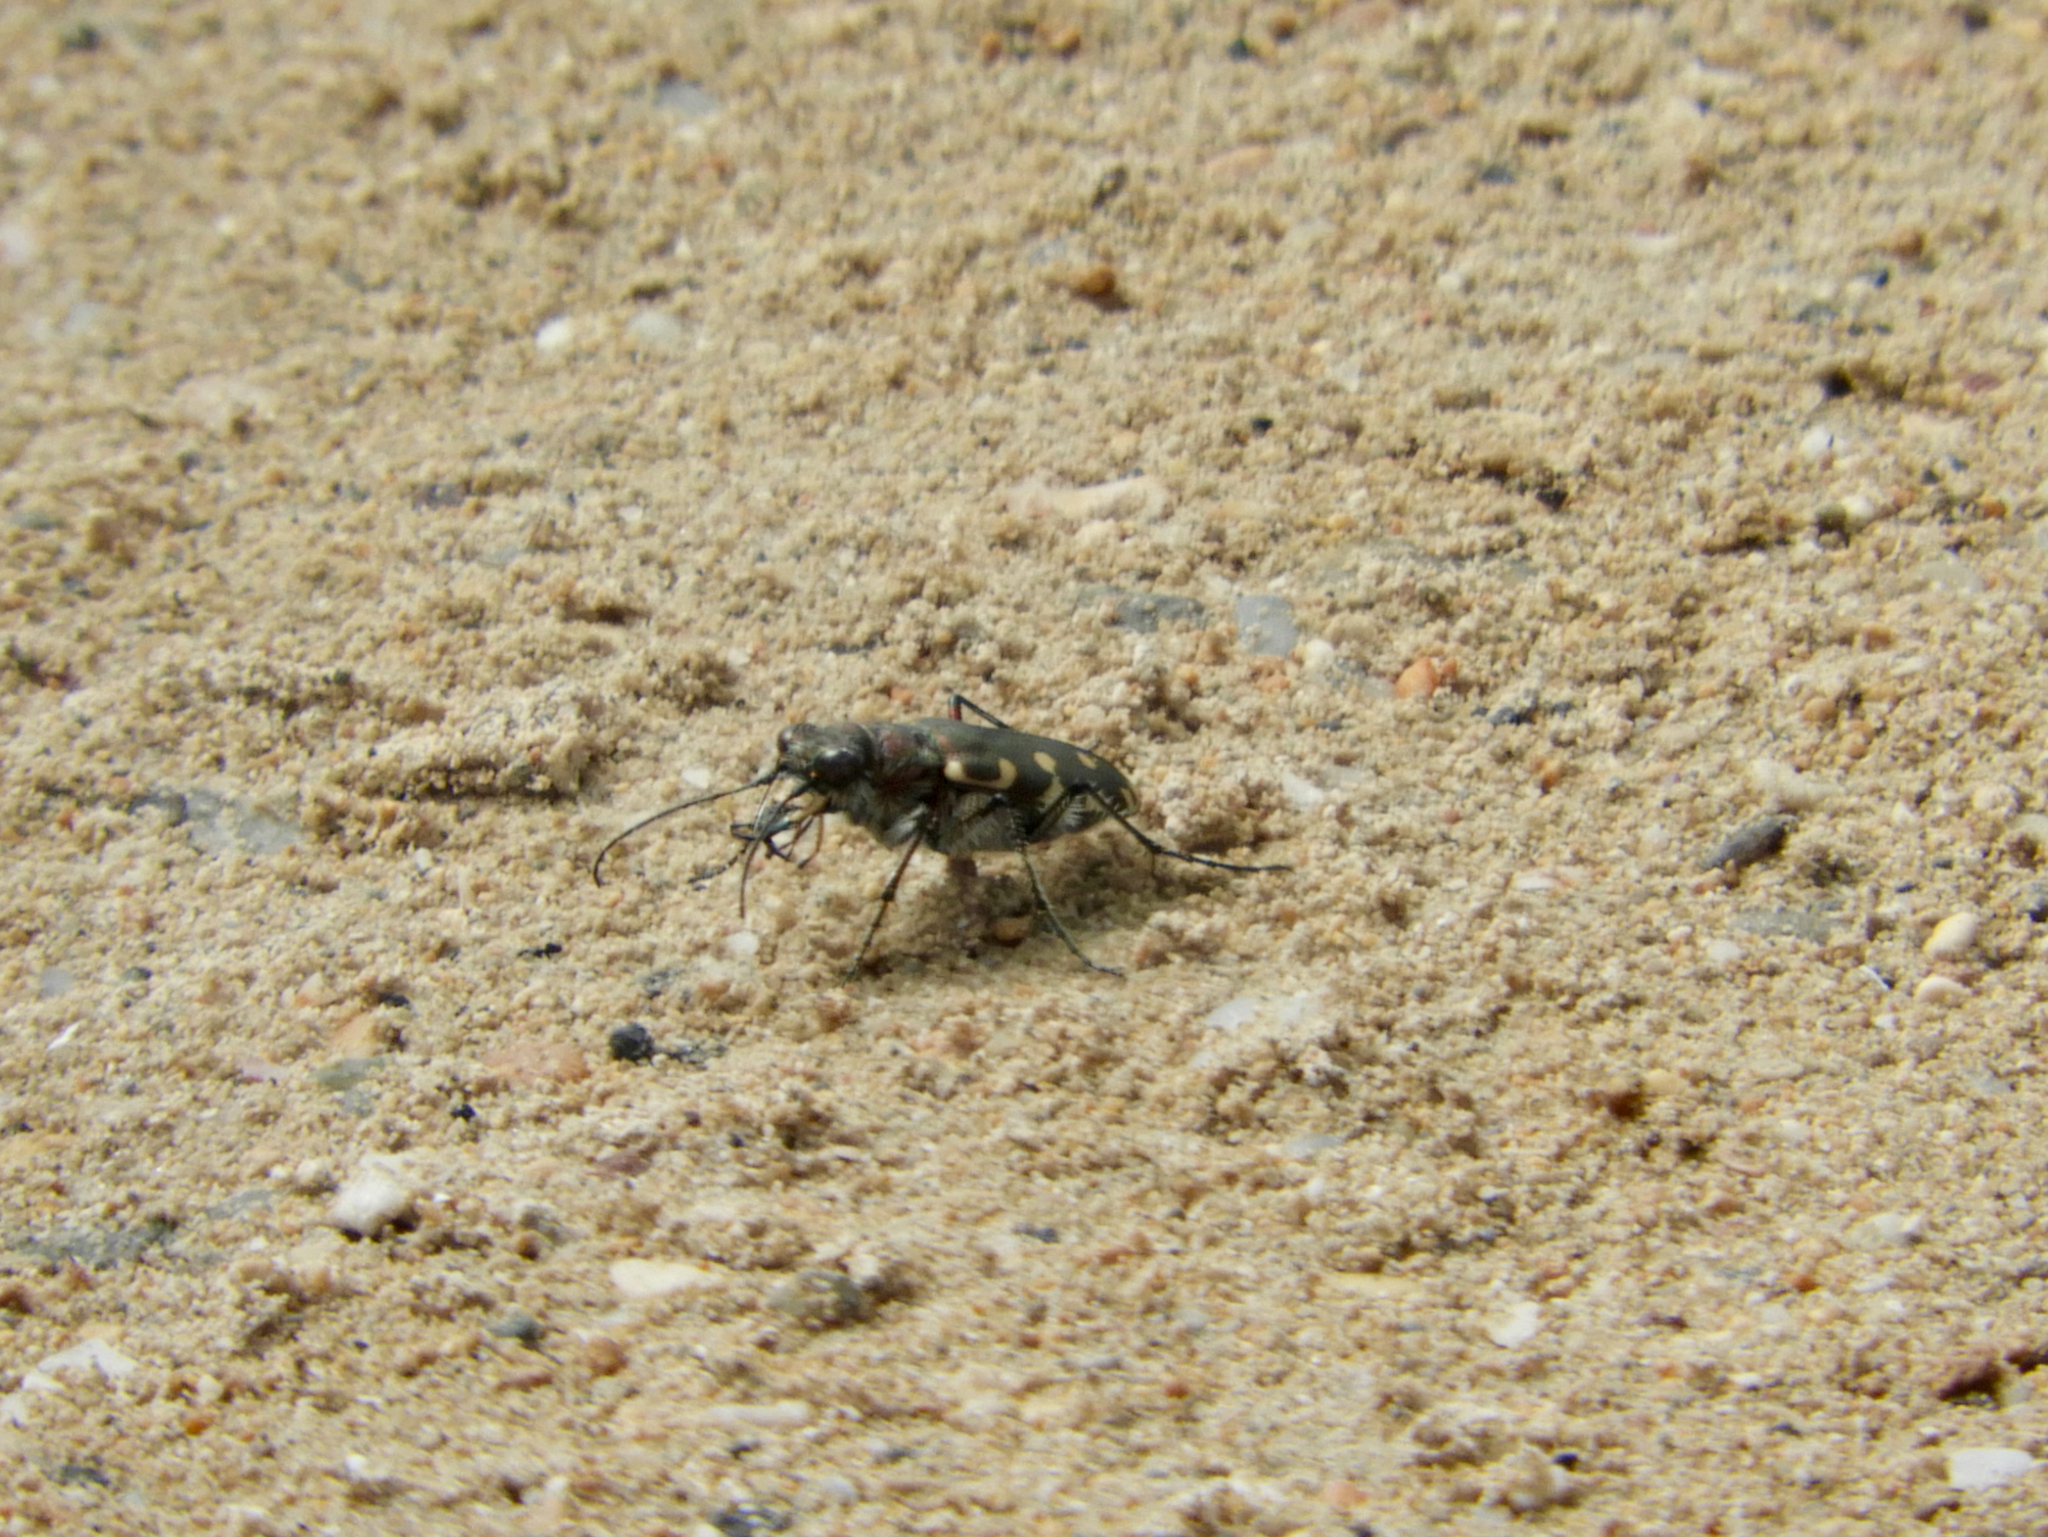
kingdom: Animalia
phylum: Arthropoda
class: Insecta
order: Coleoptera
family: Carabidae
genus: Cicindela
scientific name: Cicindela littoralis
